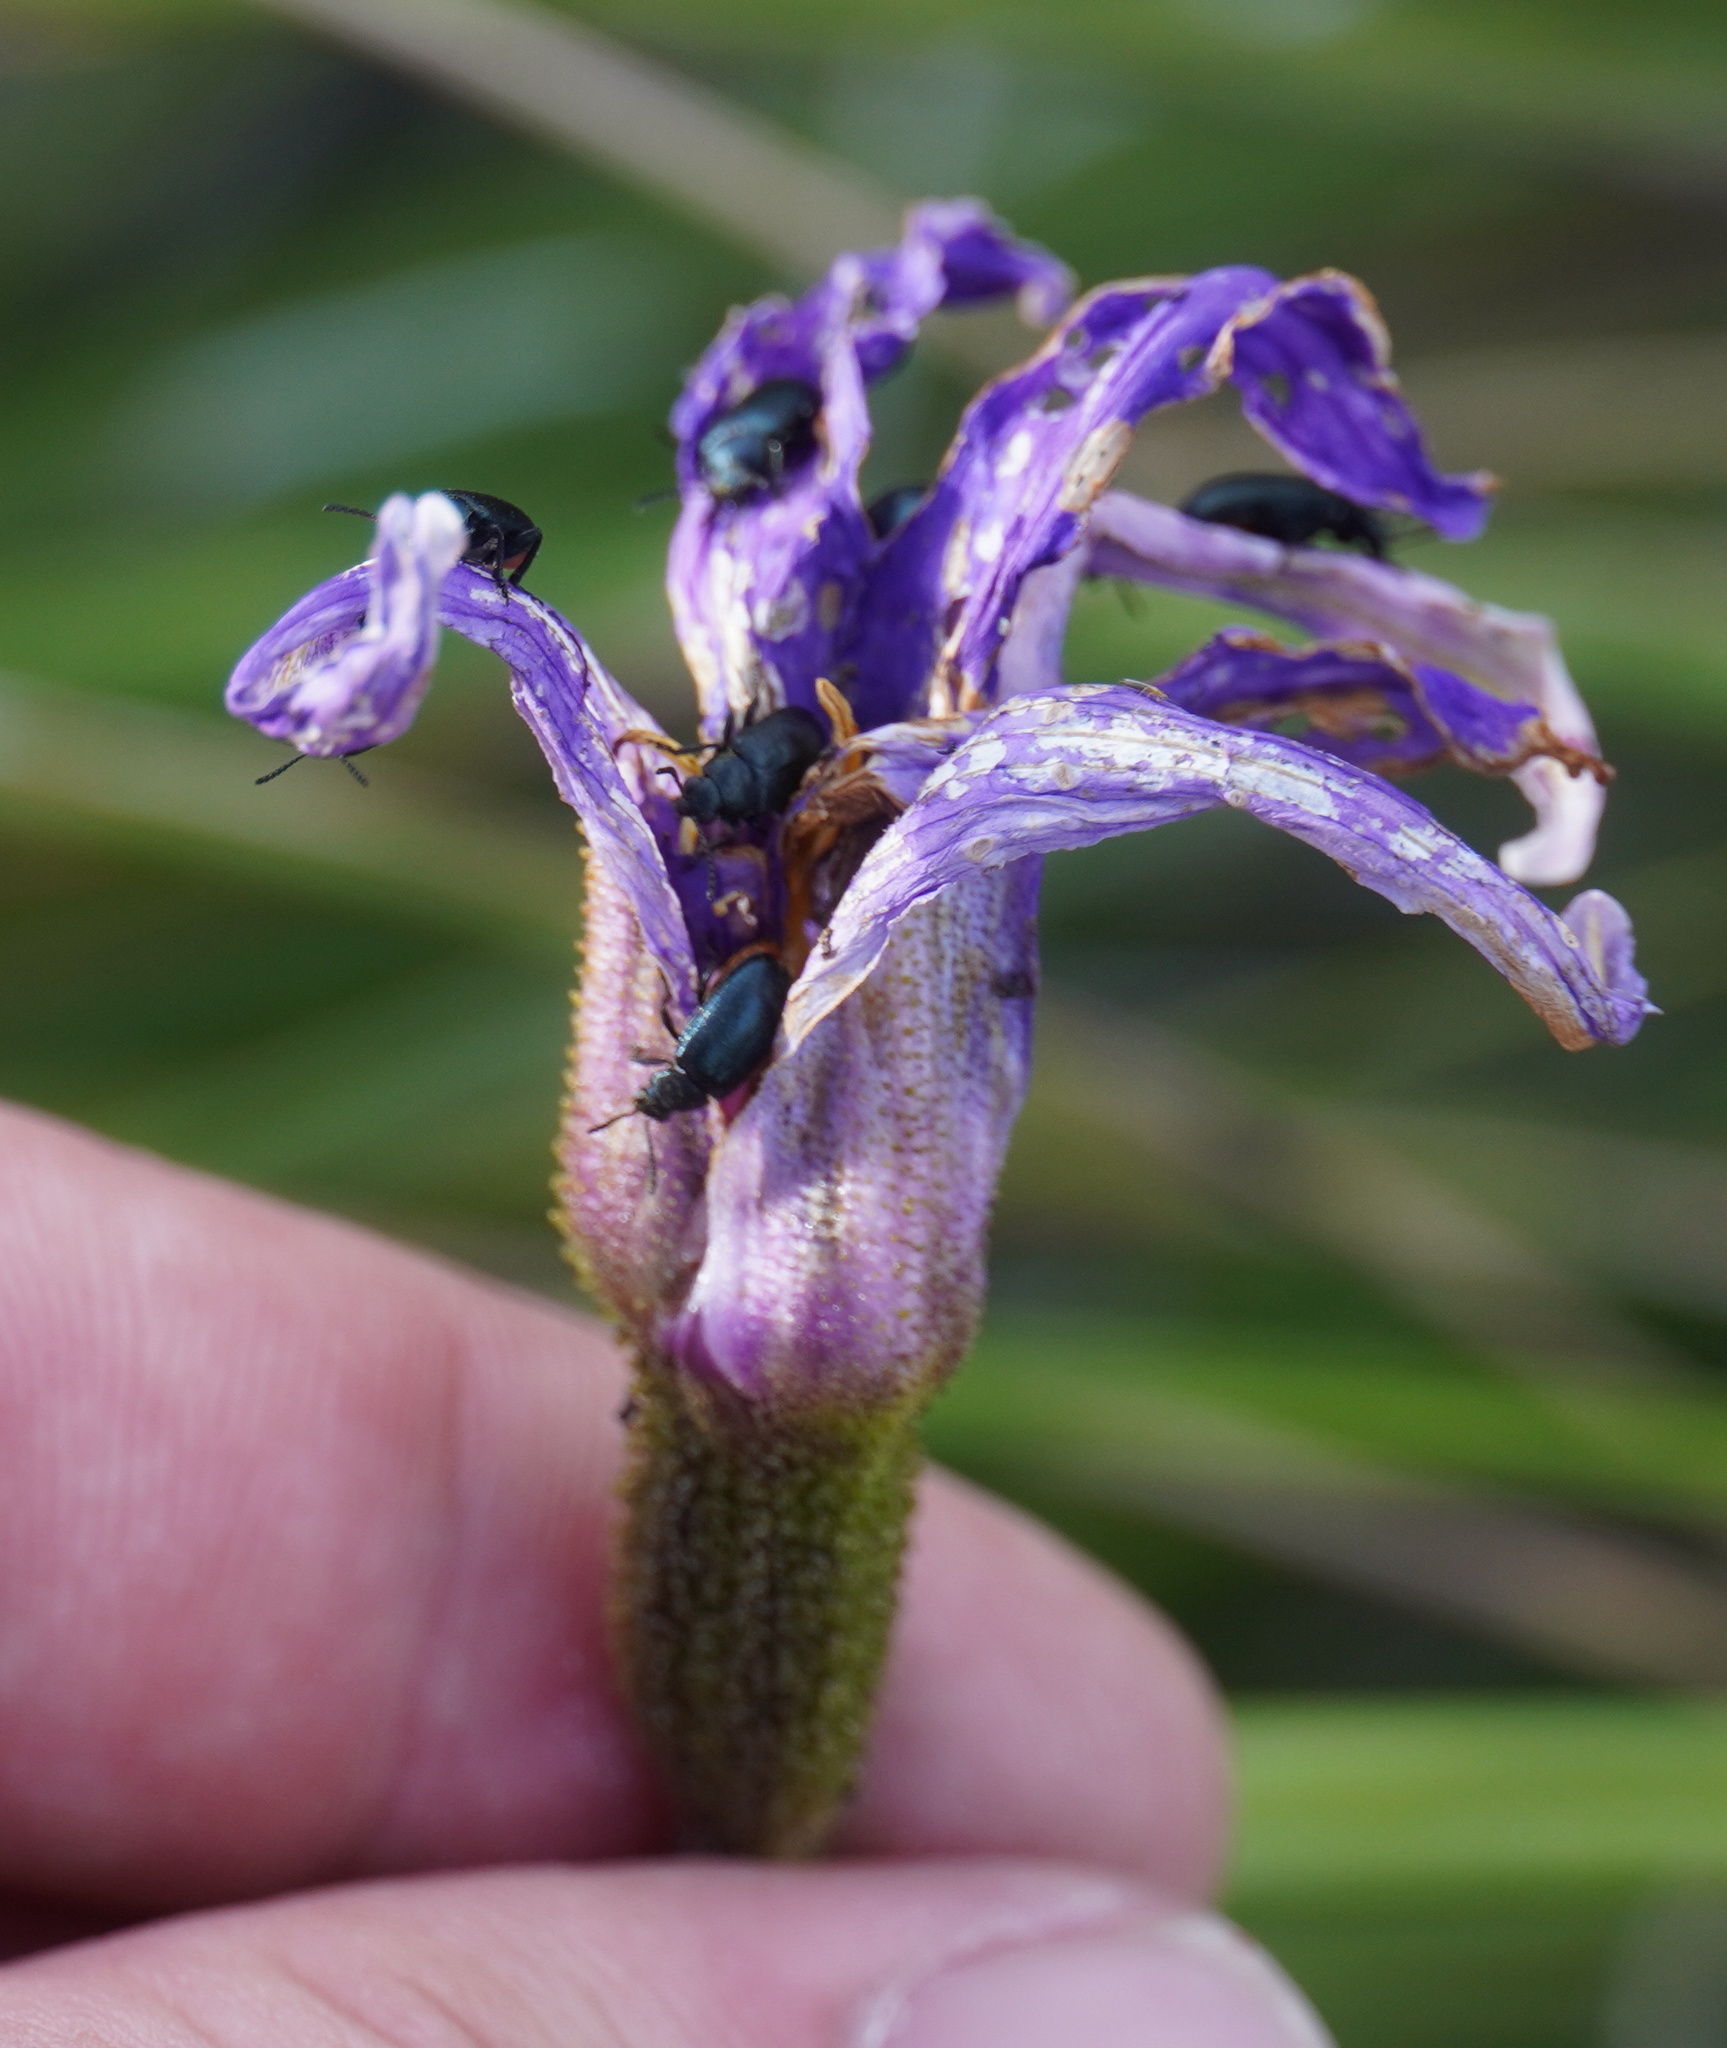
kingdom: Plantae
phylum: Tracheophyta
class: Liliopsida
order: Pandanales
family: Velloziaceae
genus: Xerophyta
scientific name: Xerophyta viscosa
